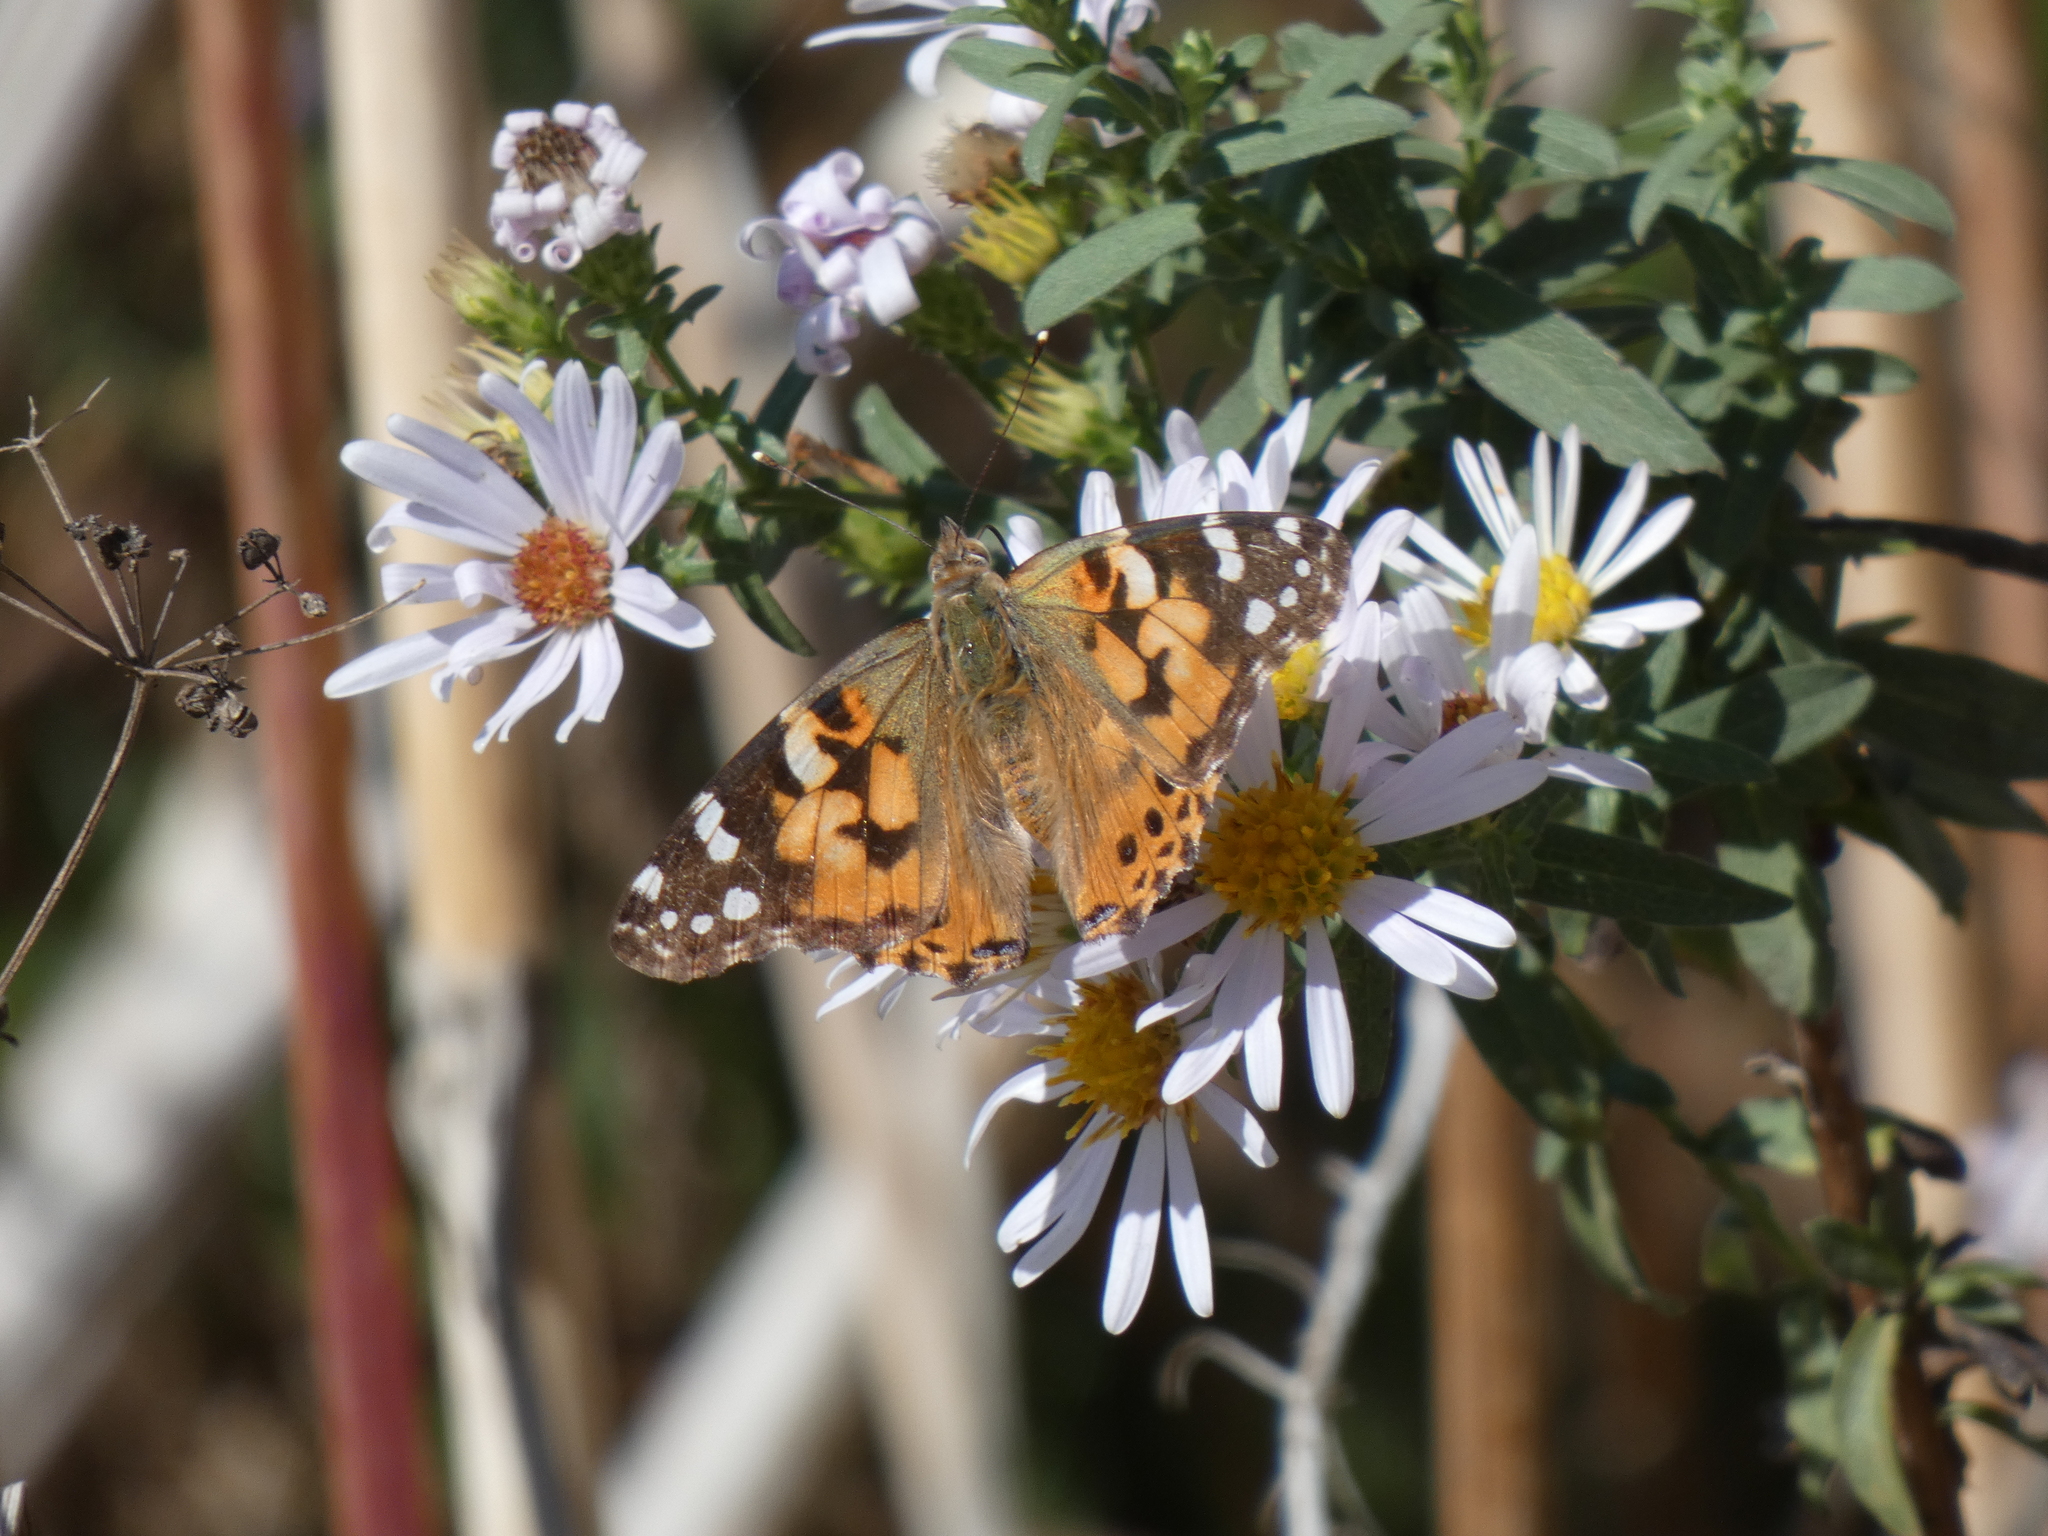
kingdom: Animalia
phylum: Arthropoda
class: Insecta
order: Lepidoptera
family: Nymphalidae
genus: Vanessa
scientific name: Vanessa cardui
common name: Painted lady
